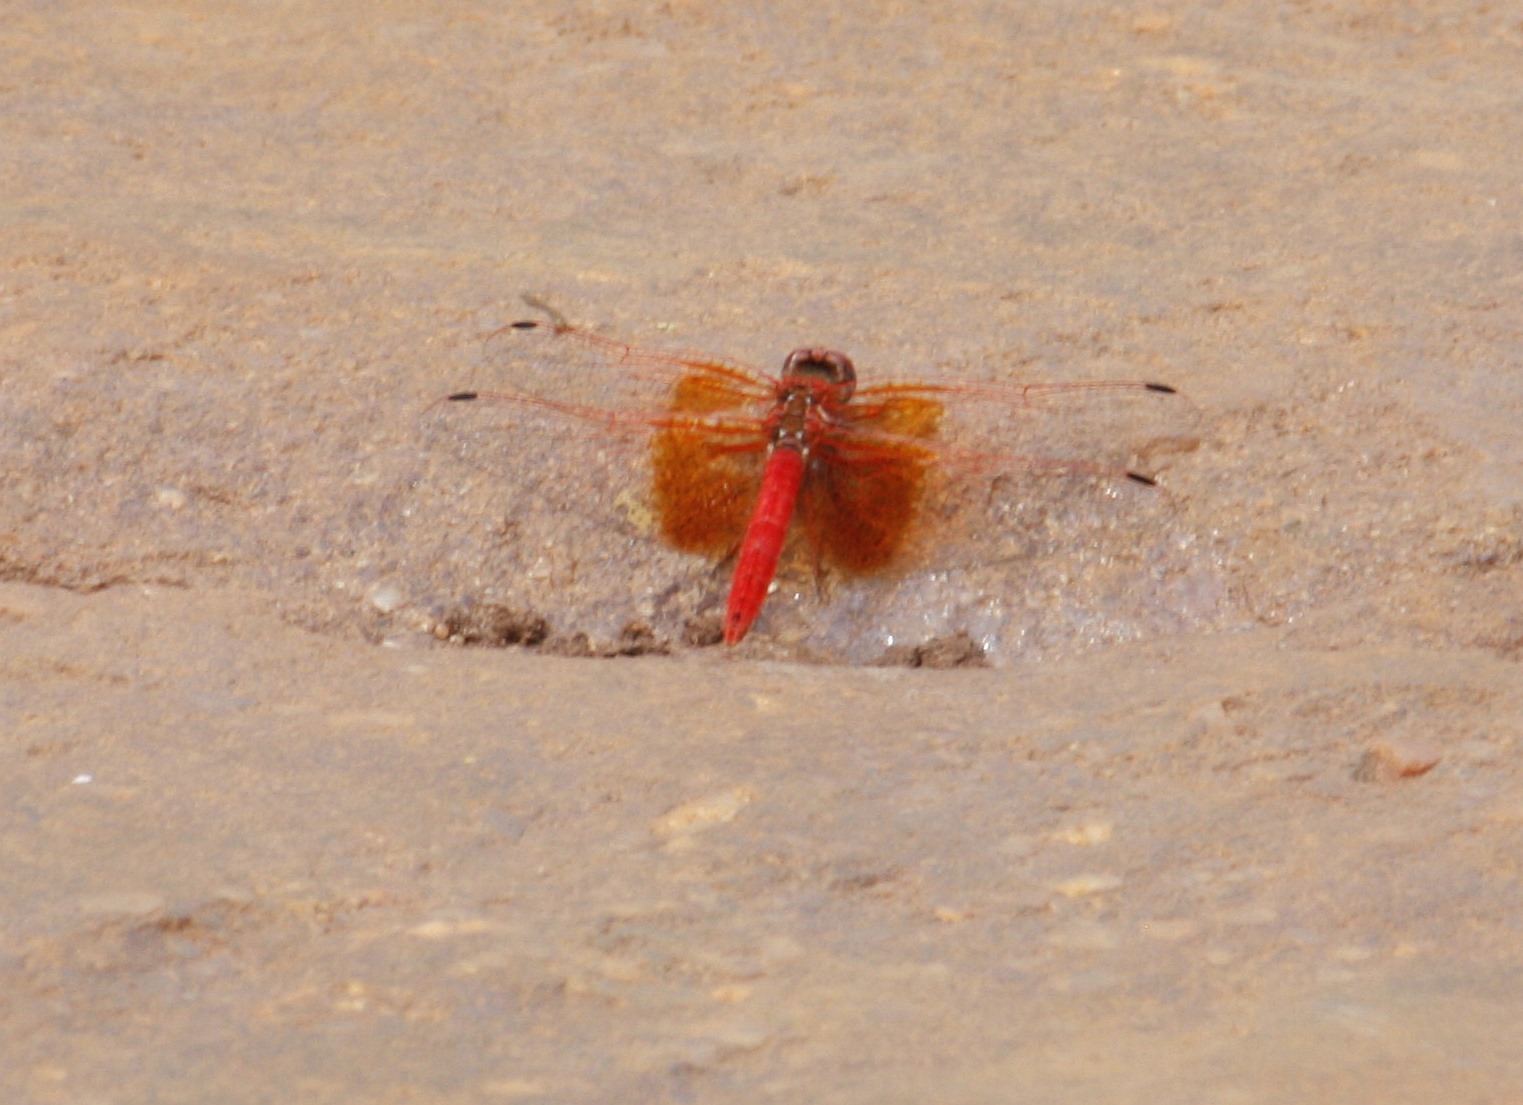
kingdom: Animalia
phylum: Arthropoda
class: Insecta
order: Odonata
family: Libellulidae
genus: Trithemis
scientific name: Trithemis kirbyi
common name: Kirby's dropwing
